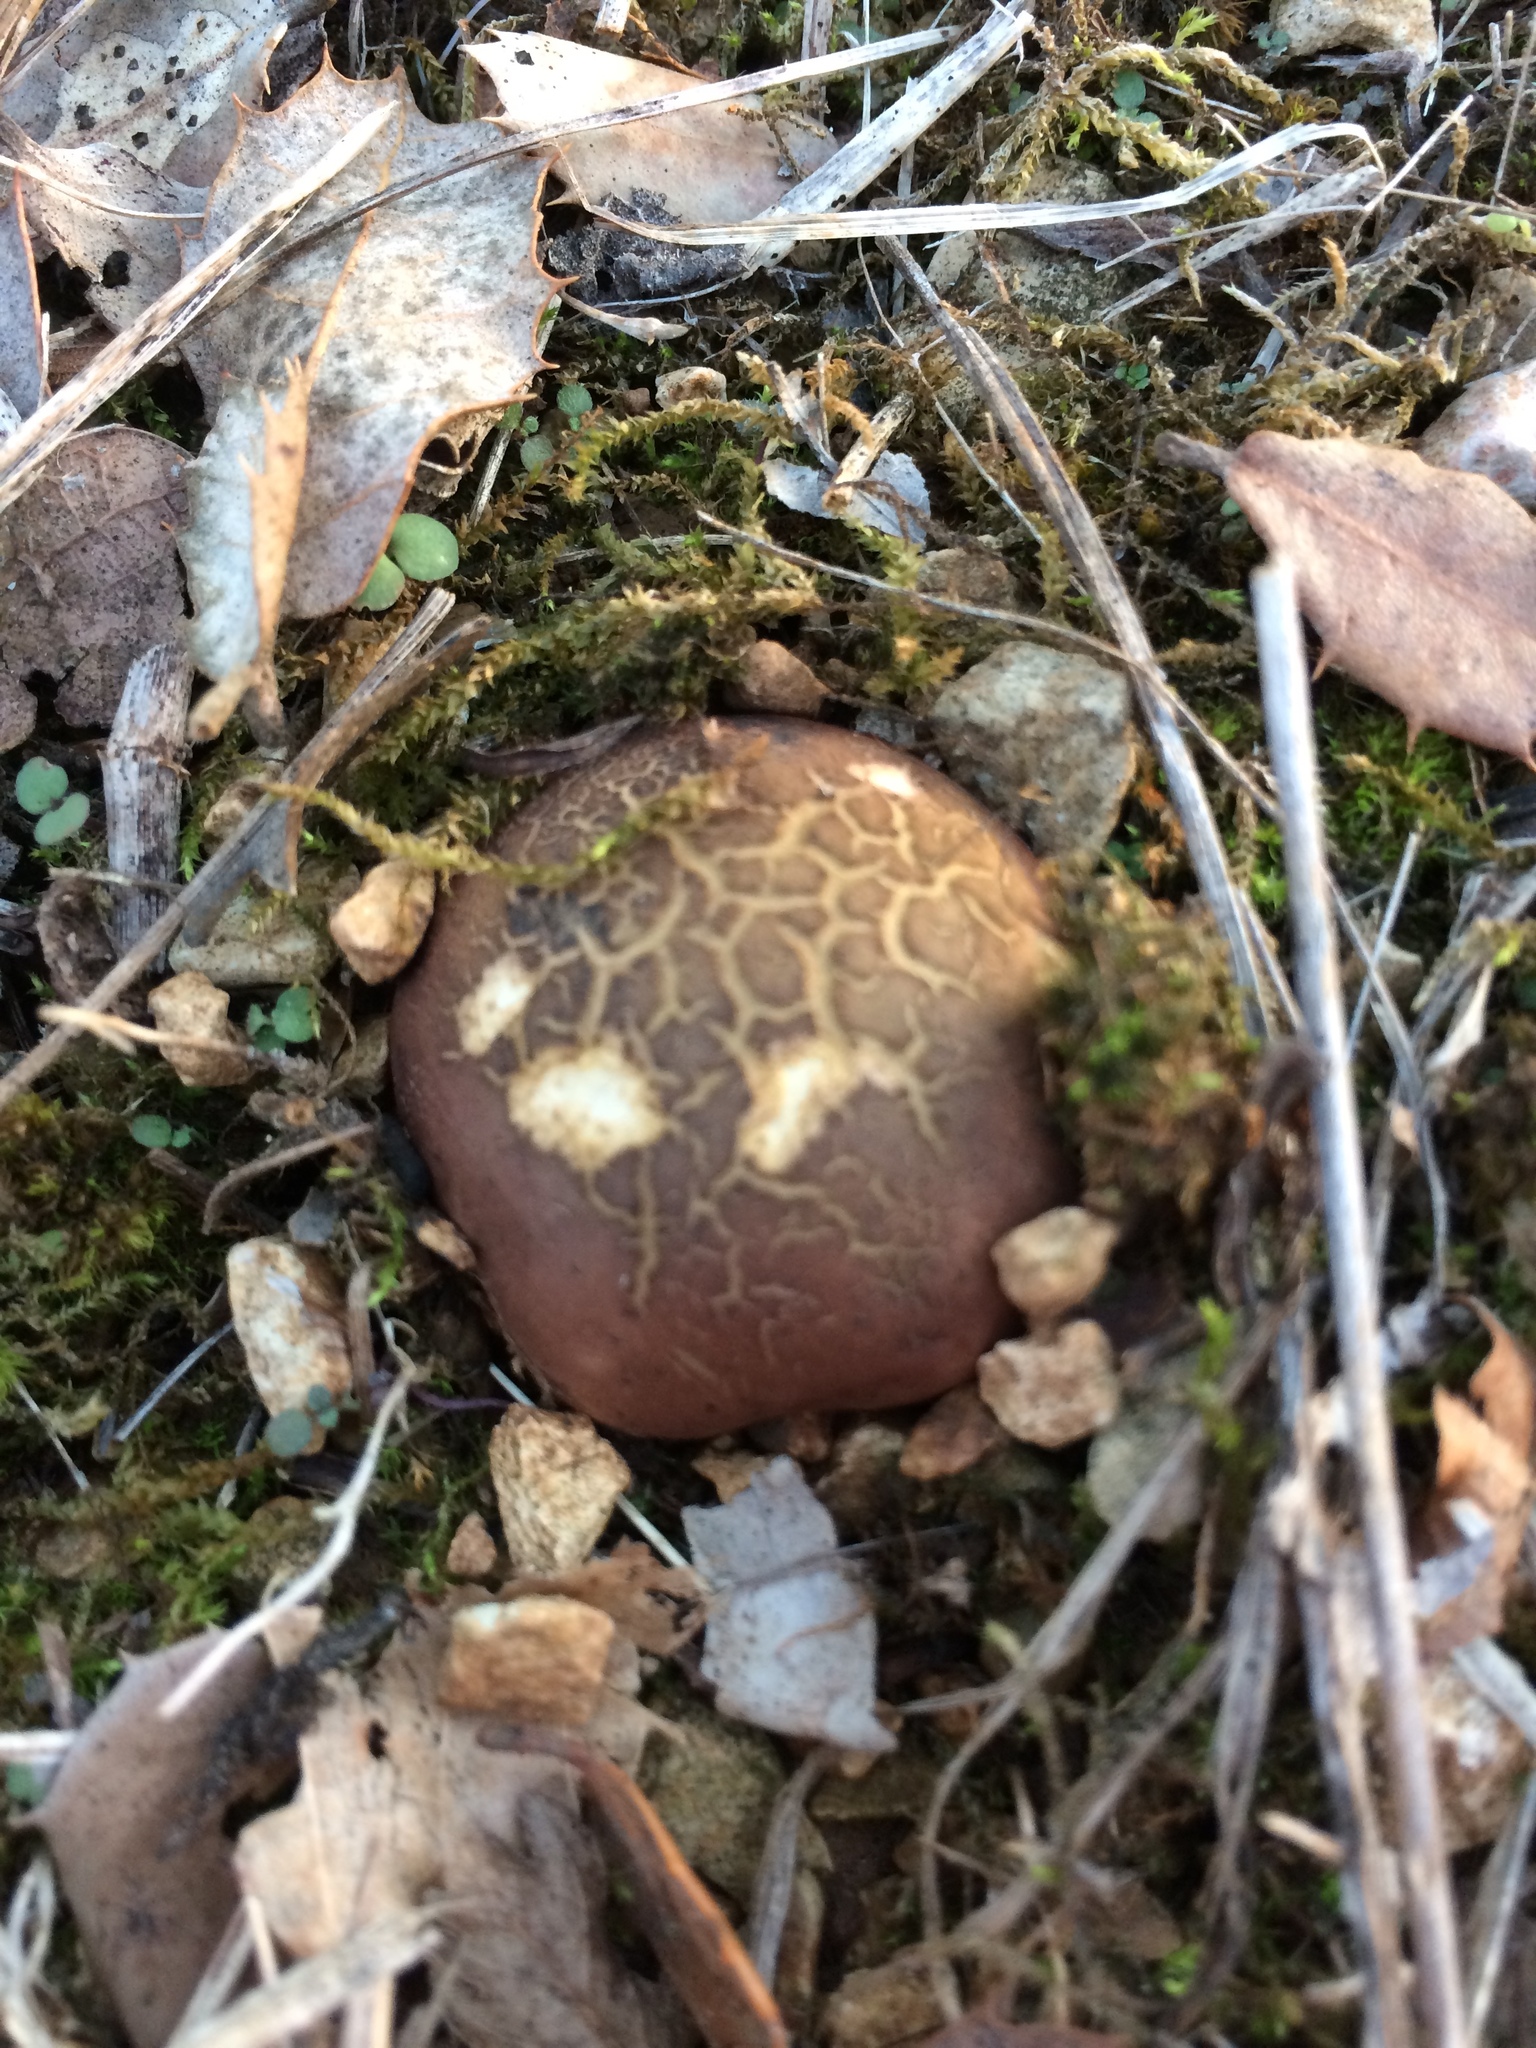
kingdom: Fungi
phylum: Basidiomycota
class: Agaricomycetes
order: Boletales
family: Sclerodermataceae
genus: Scleroderma
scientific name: Scleroderma citrinum
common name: Common earthball
